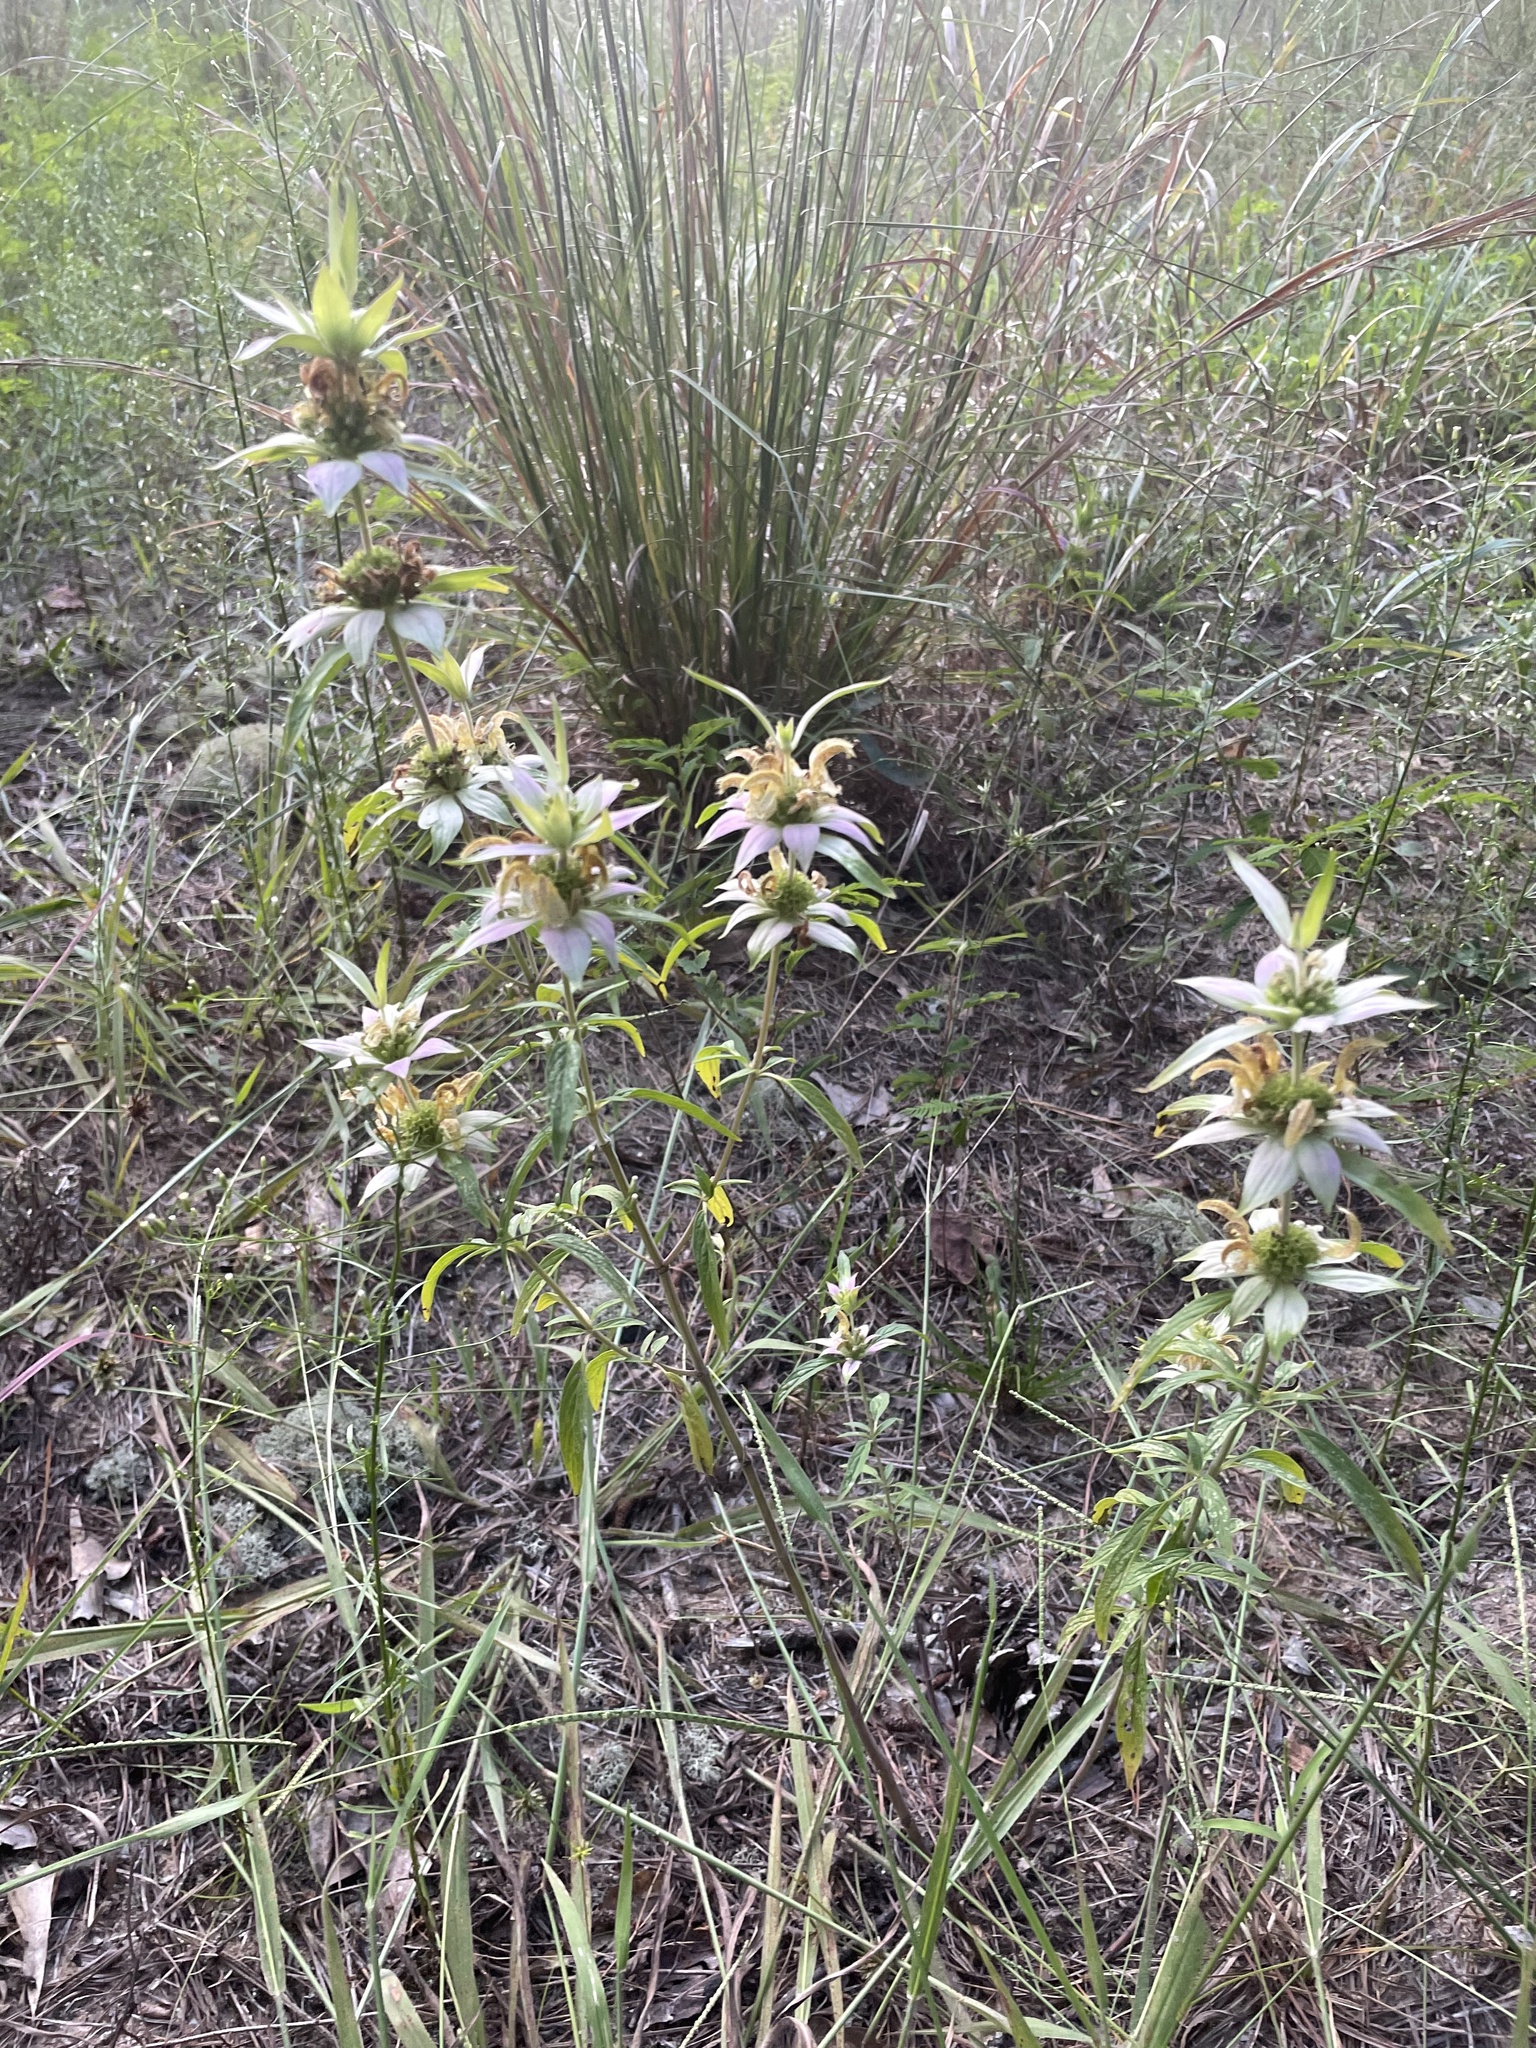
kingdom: Plantae
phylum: Tracheophyta
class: Magnoliopsida
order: Lamiales
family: Lamiaceae
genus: Monarda
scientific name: Monarda punctata
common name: Dotted monarda
